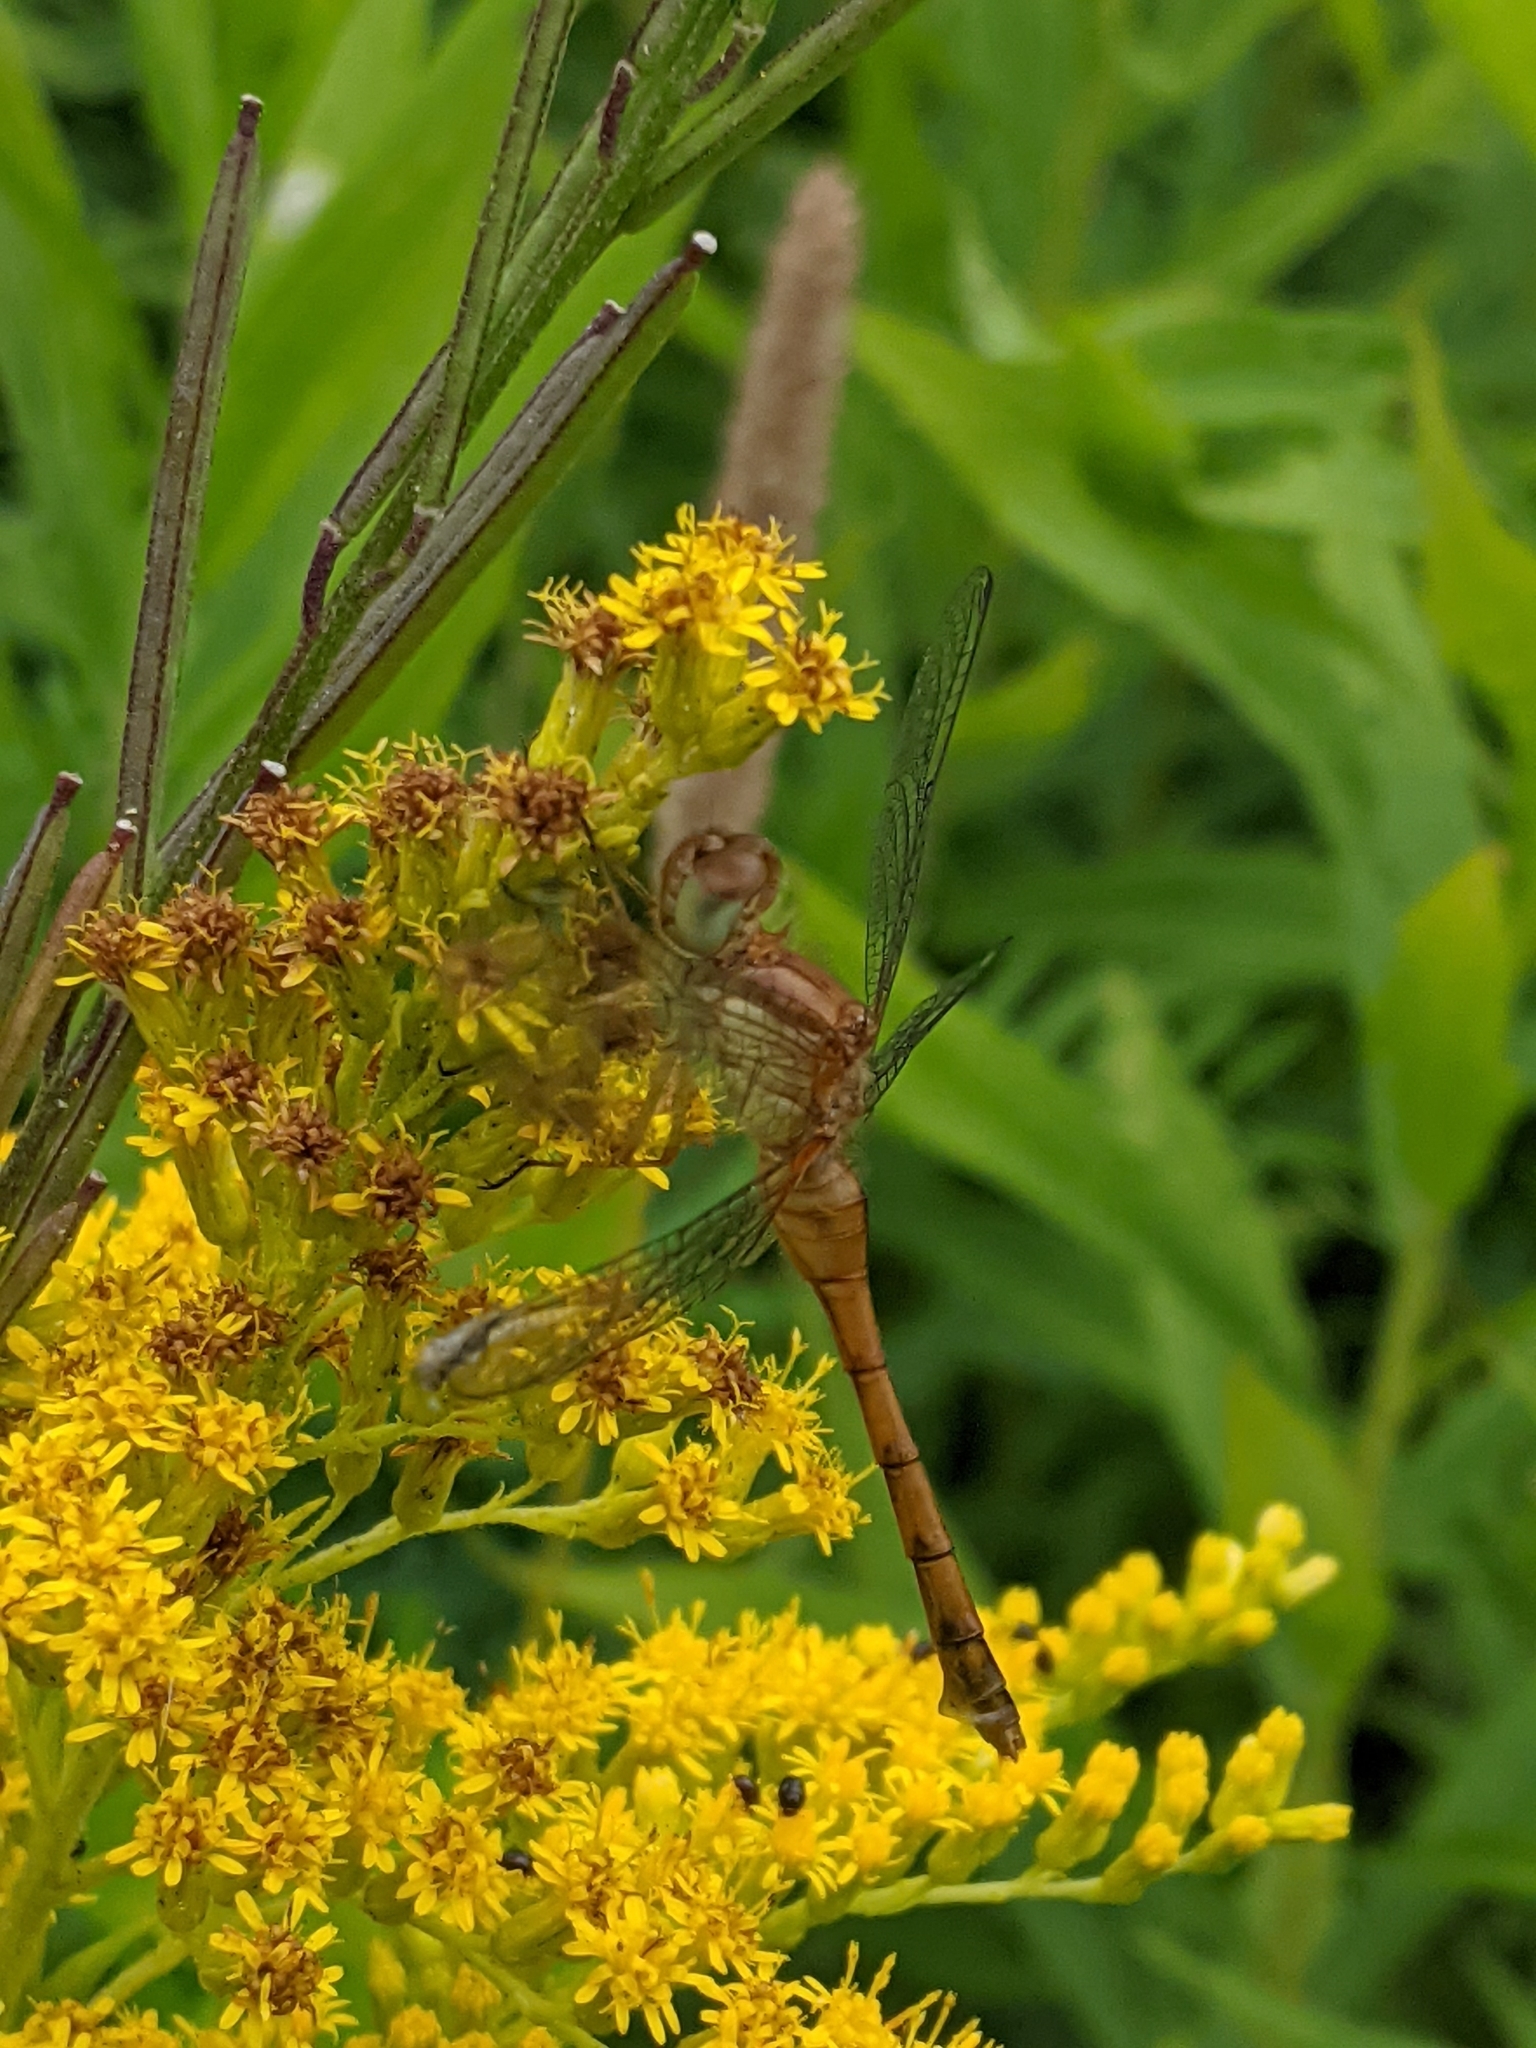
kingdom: Animalia
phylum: Arthropoda
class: Insecta
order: Odonata
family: Libellulidae
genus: Sympetrum
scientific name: Sympetrum vicinum
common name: Autumn meadowhawk
